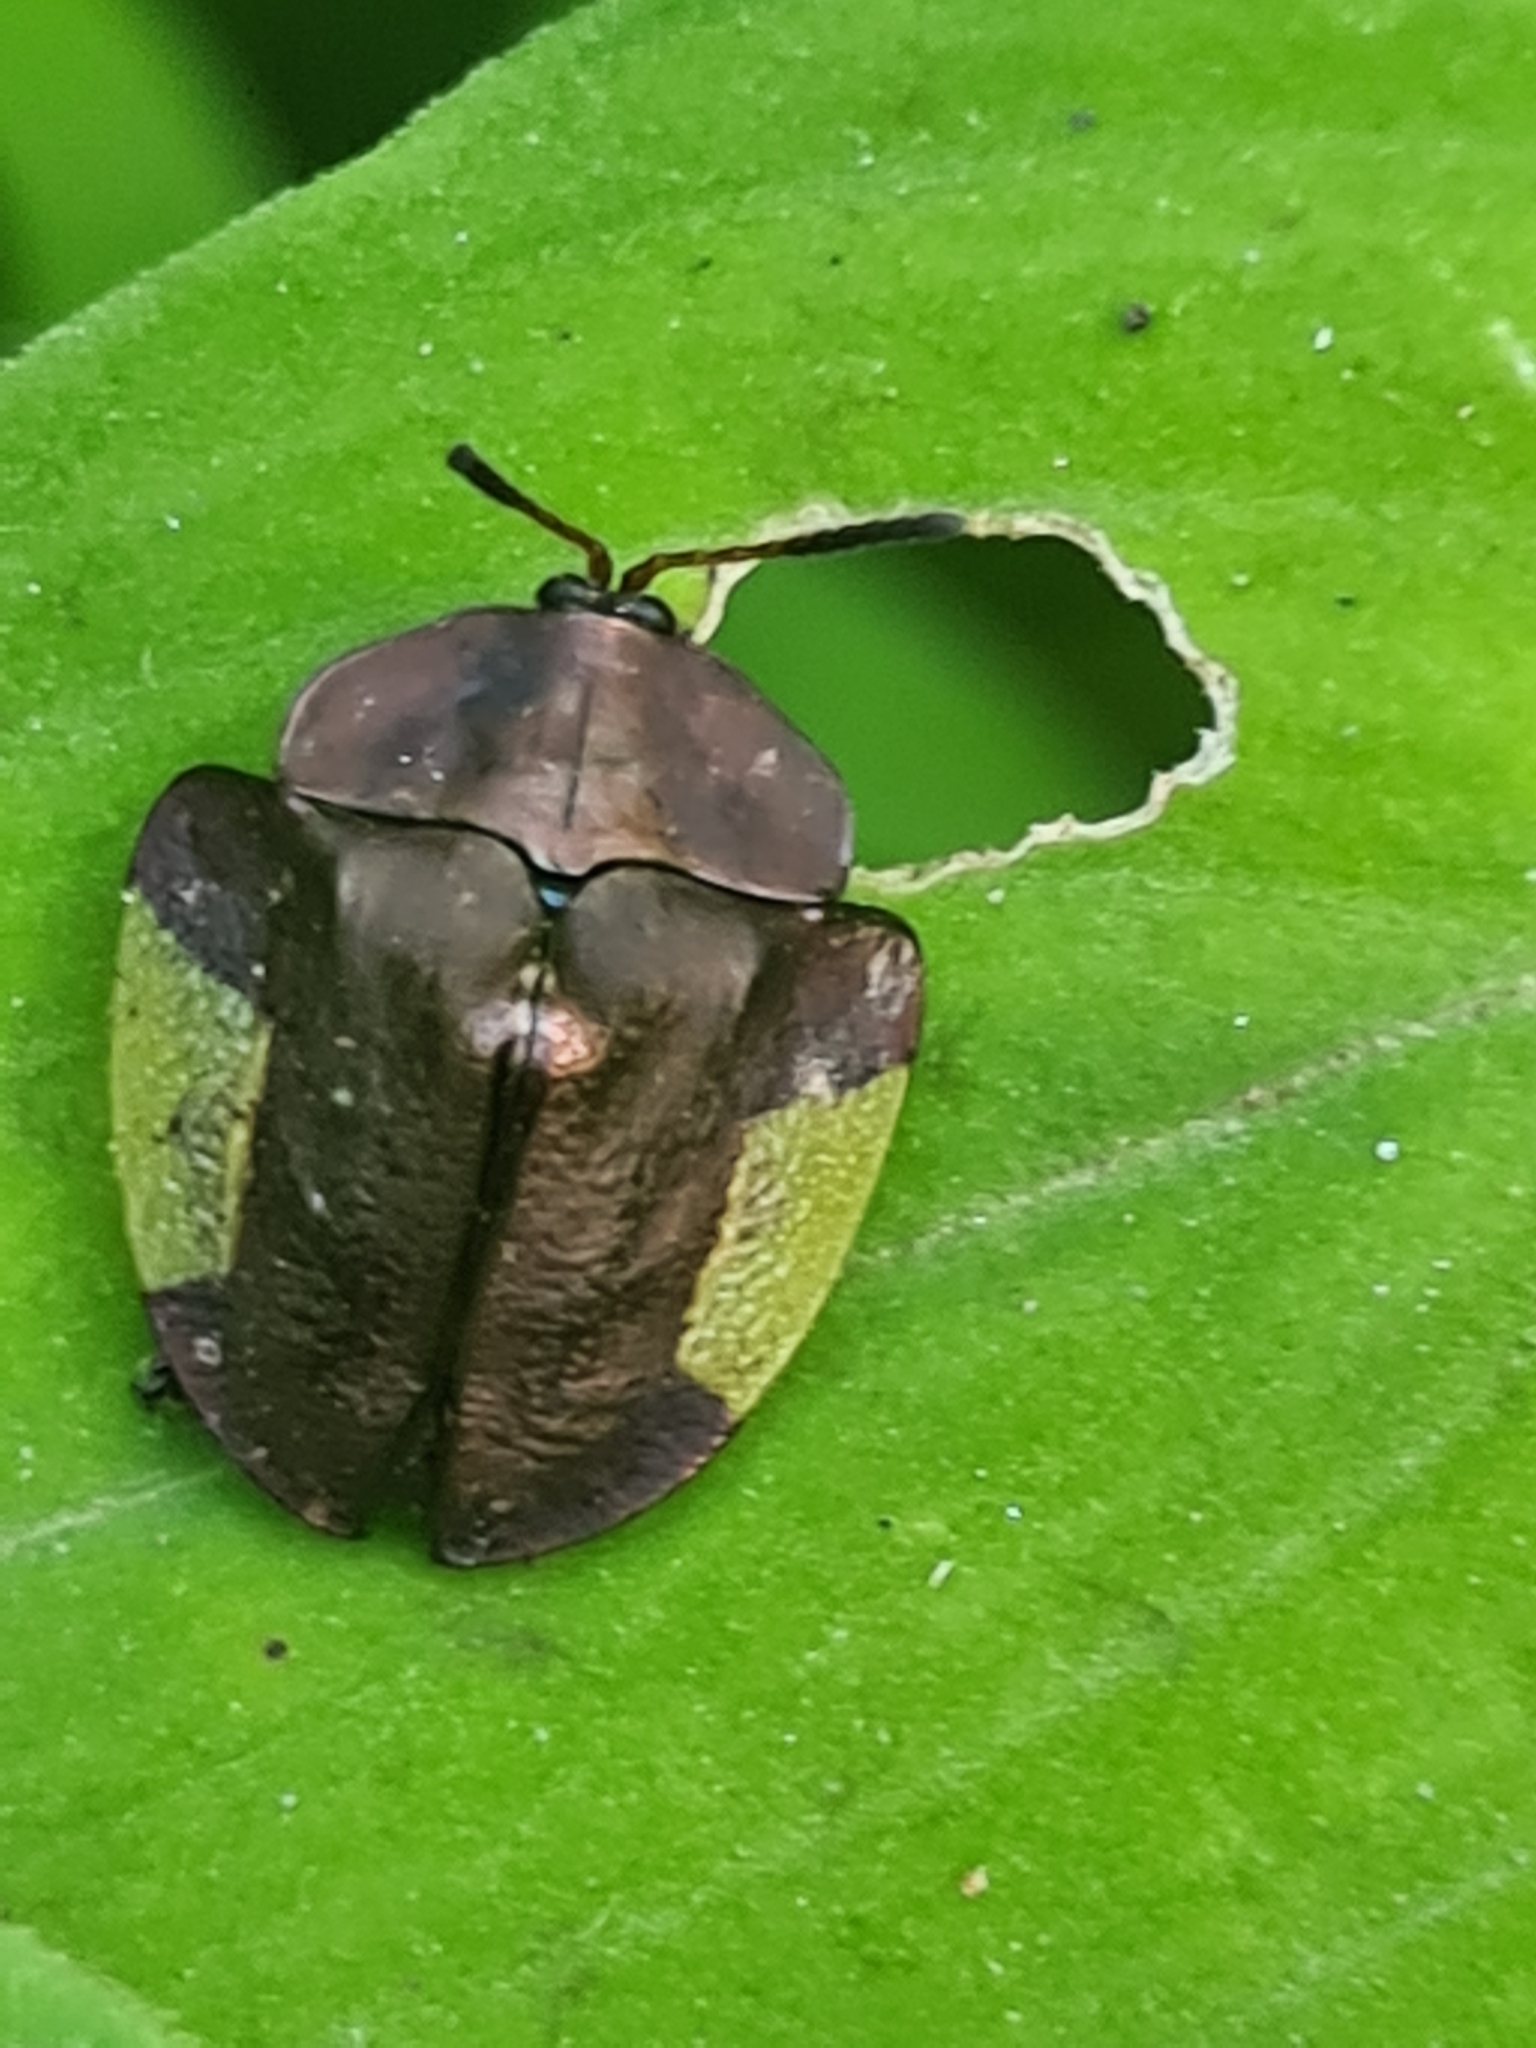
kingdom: Animalia
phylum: Arthropoda
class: Insecta
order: Coleoptera
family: Chrysomelidae
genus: Cyrtonota
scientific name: Cyrtonota lateralis
